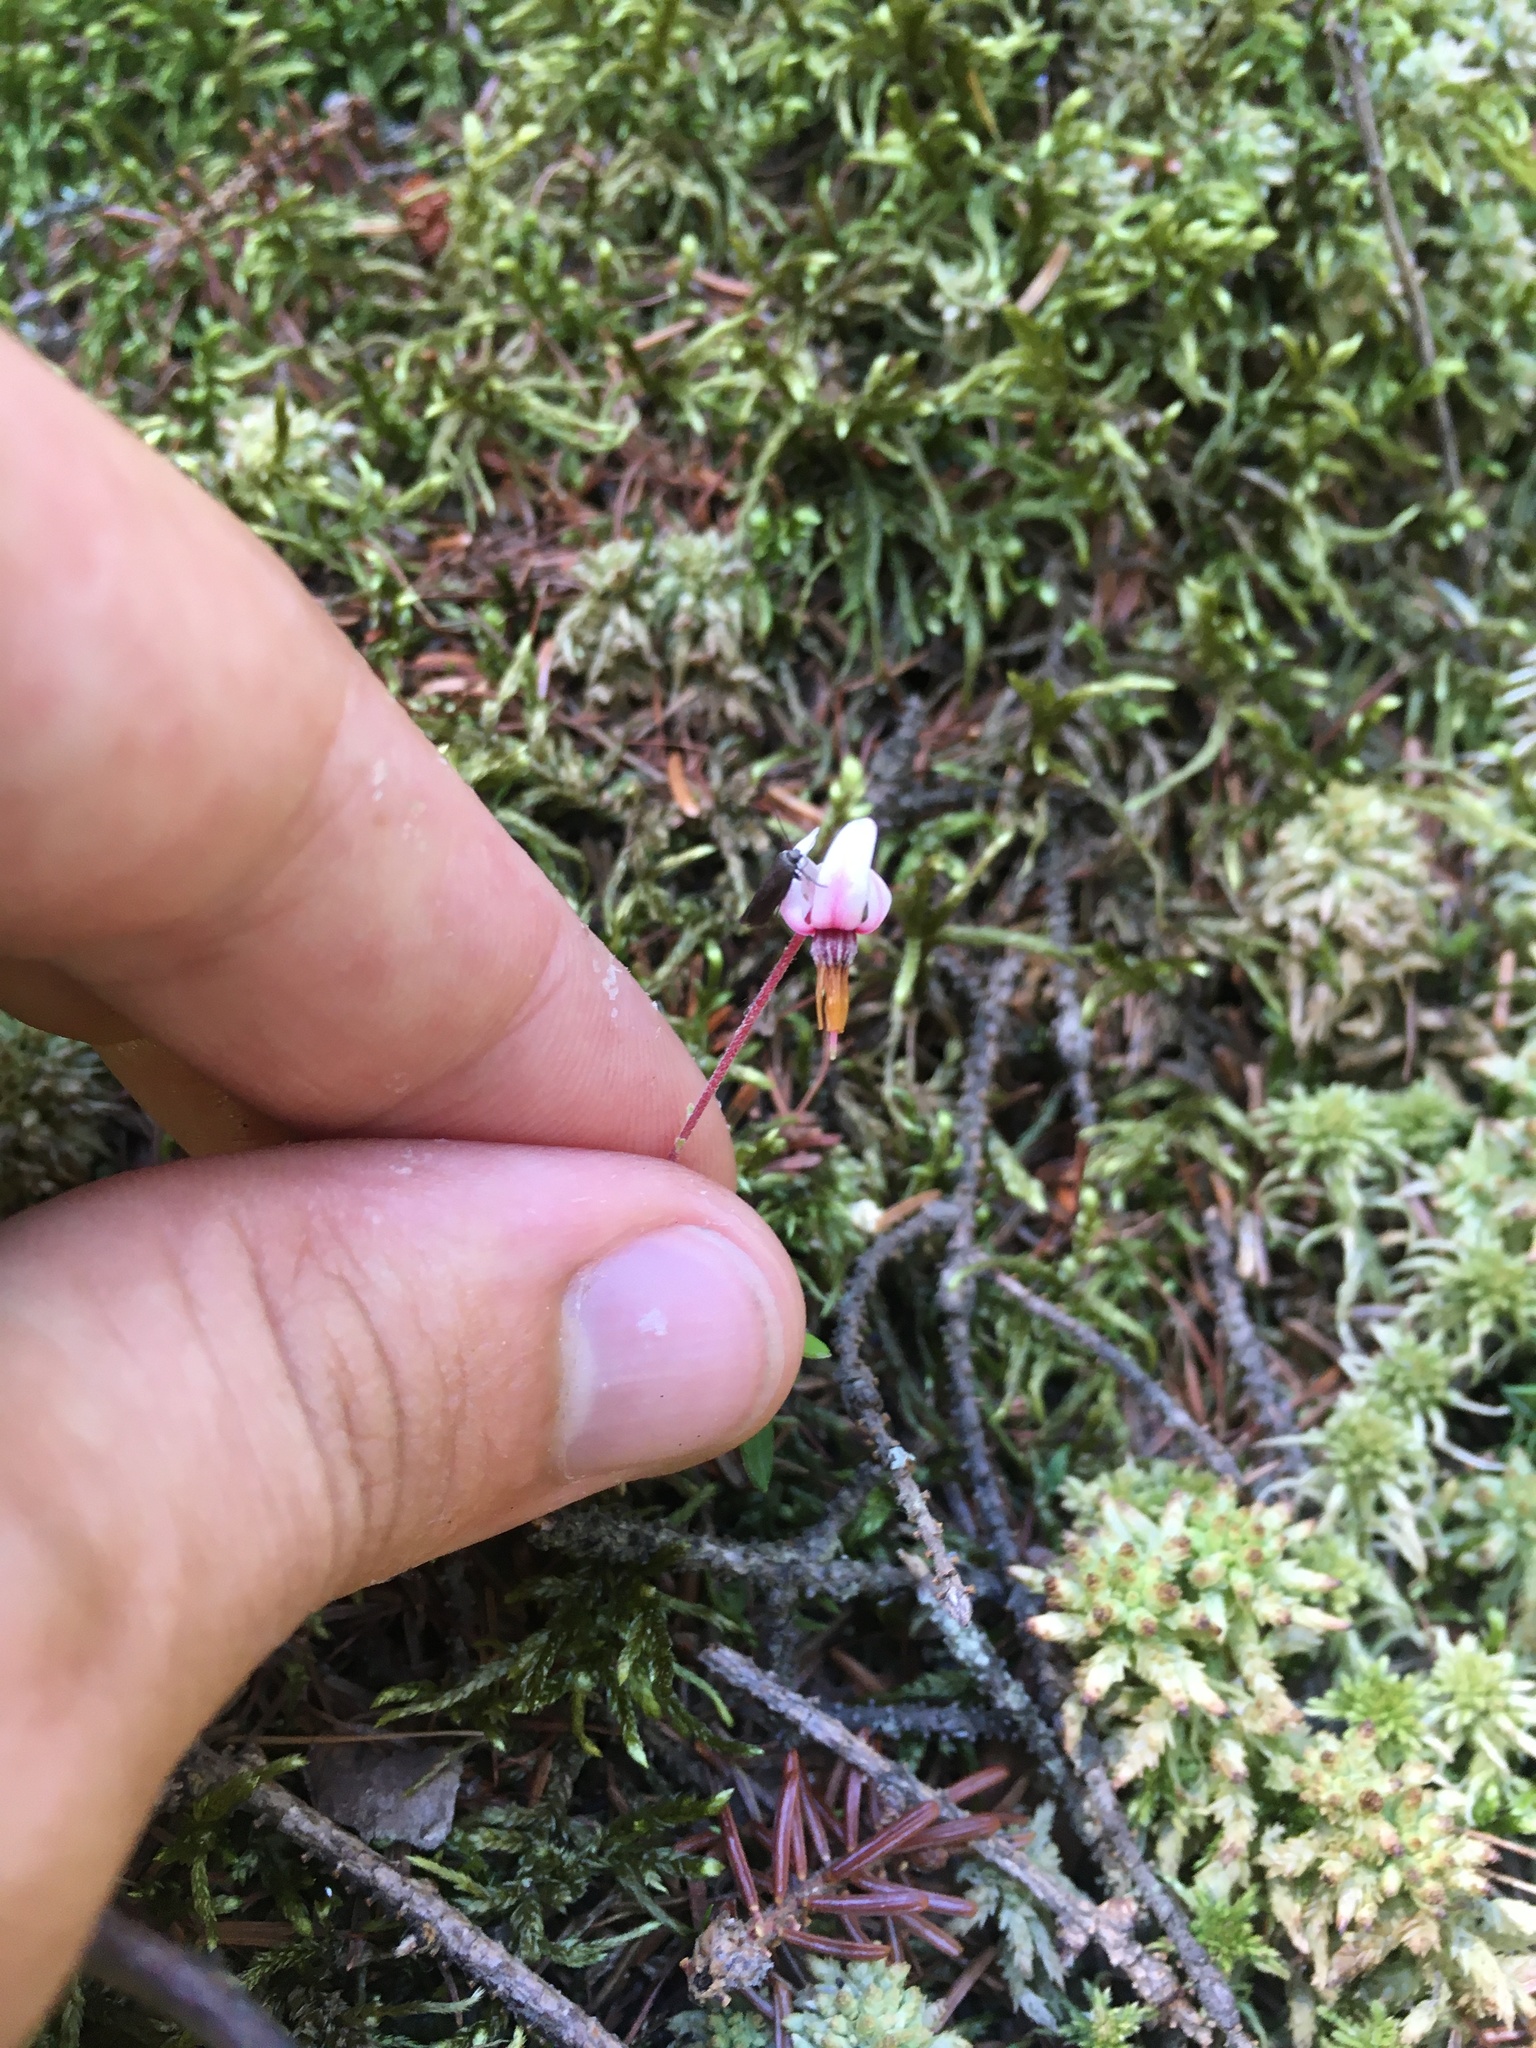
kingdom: Plantae
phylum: Tracheophyta
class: Magnoliopsida
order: Ericales
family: Ericaceae
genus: Vaccinium
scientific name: Vaccinium oxycoccos
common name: Cranberry
